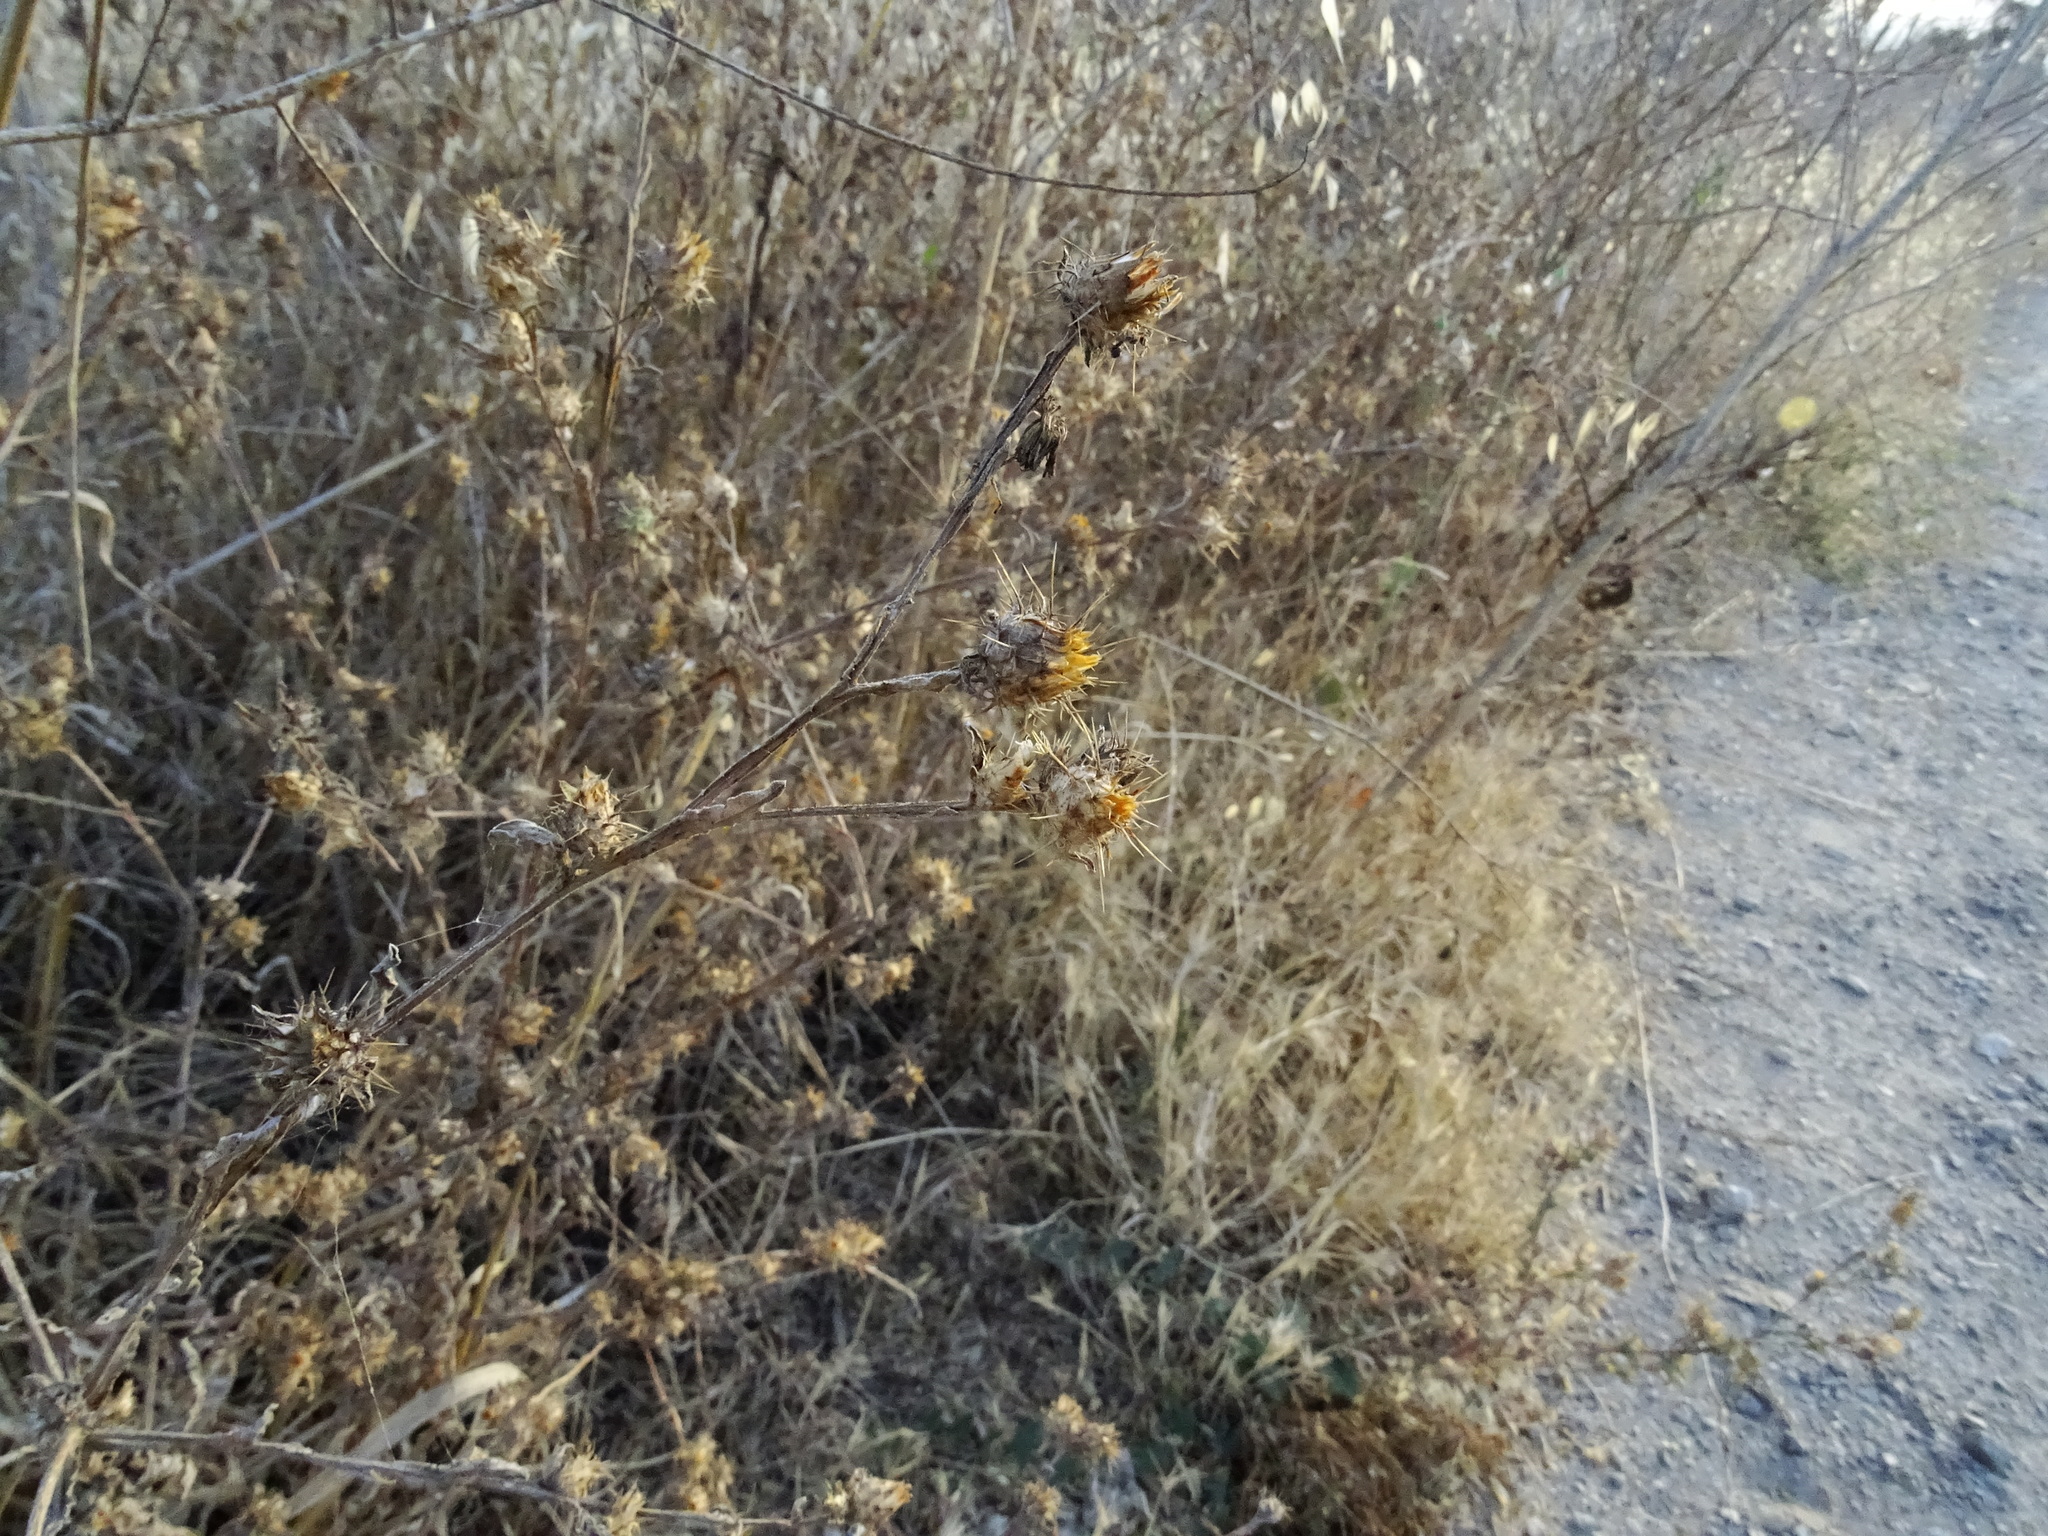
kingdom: Plantae
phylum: Tracheophyta
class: Magnoliopsida
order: Asterales
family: Asteraceae
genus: Centaurea
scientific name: Centaurea melitensis
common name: Maltese star-thistle
